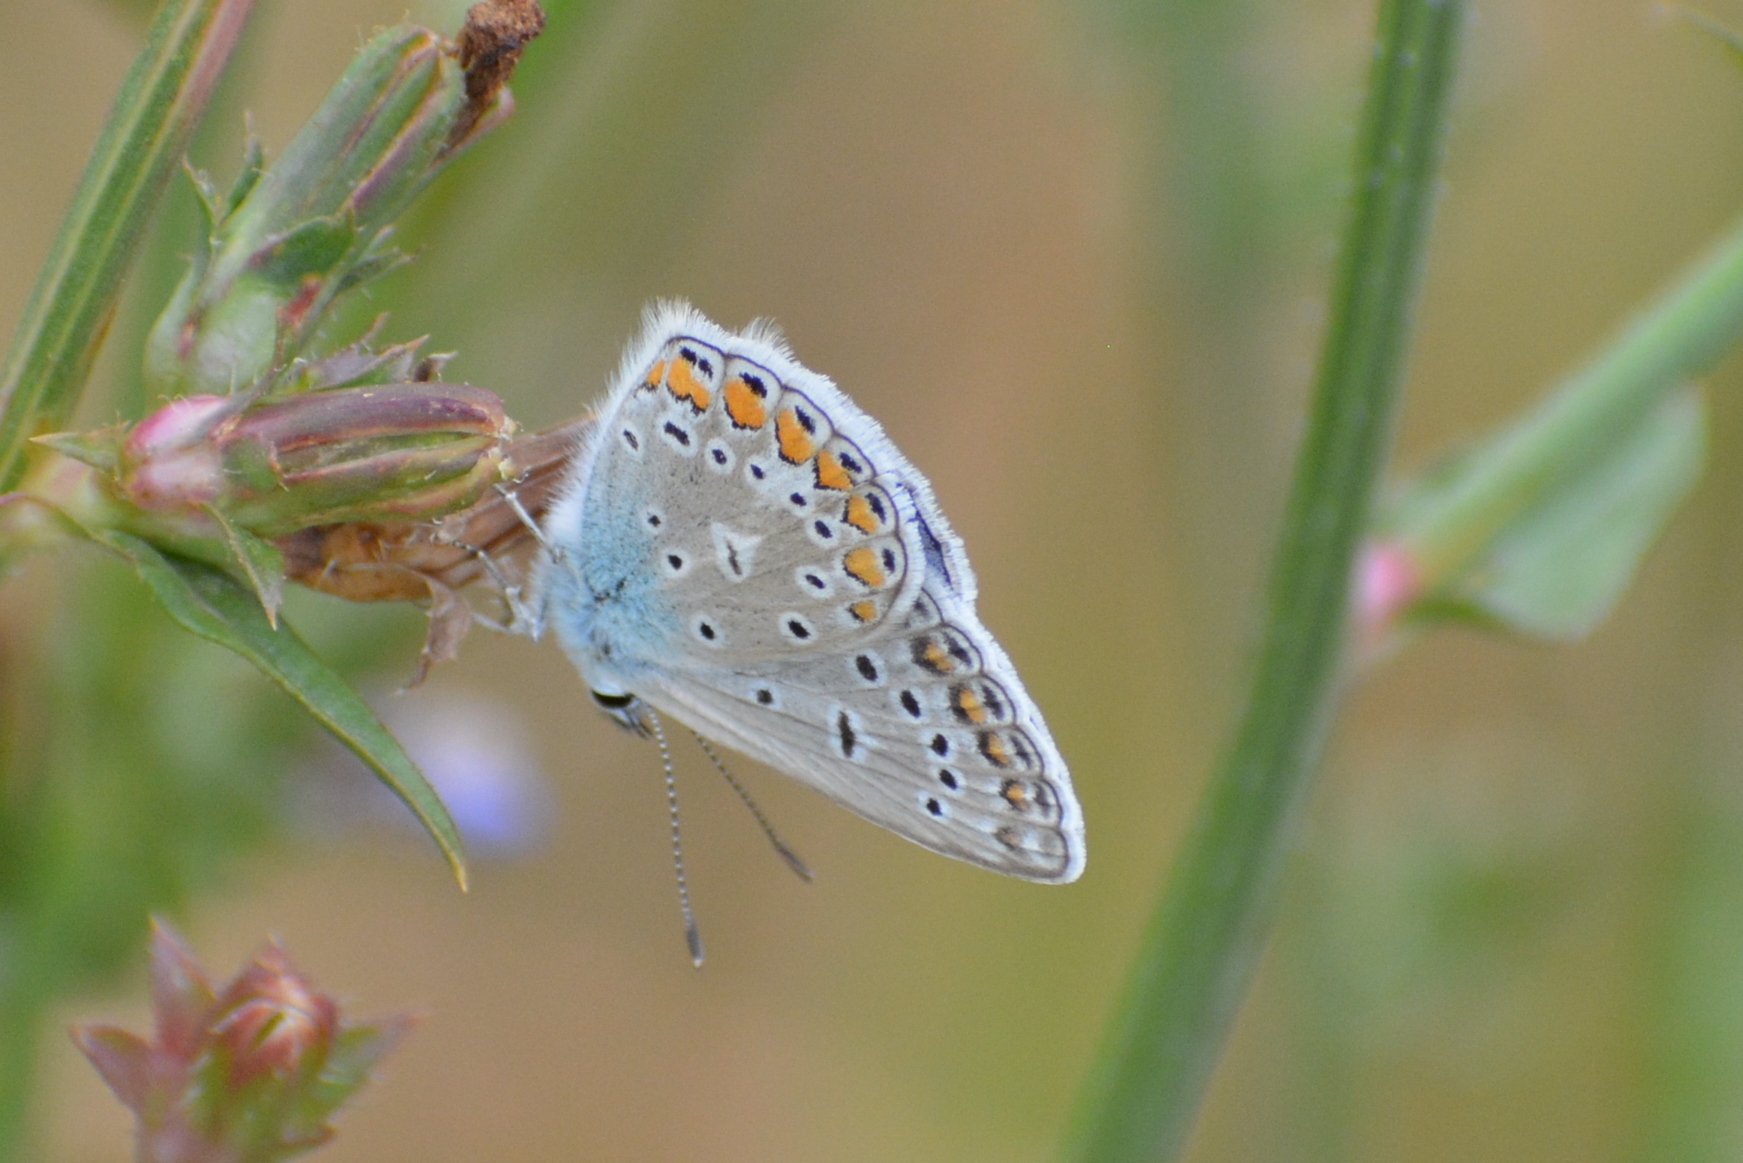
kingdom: Animalia
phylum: Arthropoda
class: Insecta
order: Lepidoptera
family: Lycaenidae
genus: Polyommatus
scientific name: Polyommatus icarus
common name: Common blue
